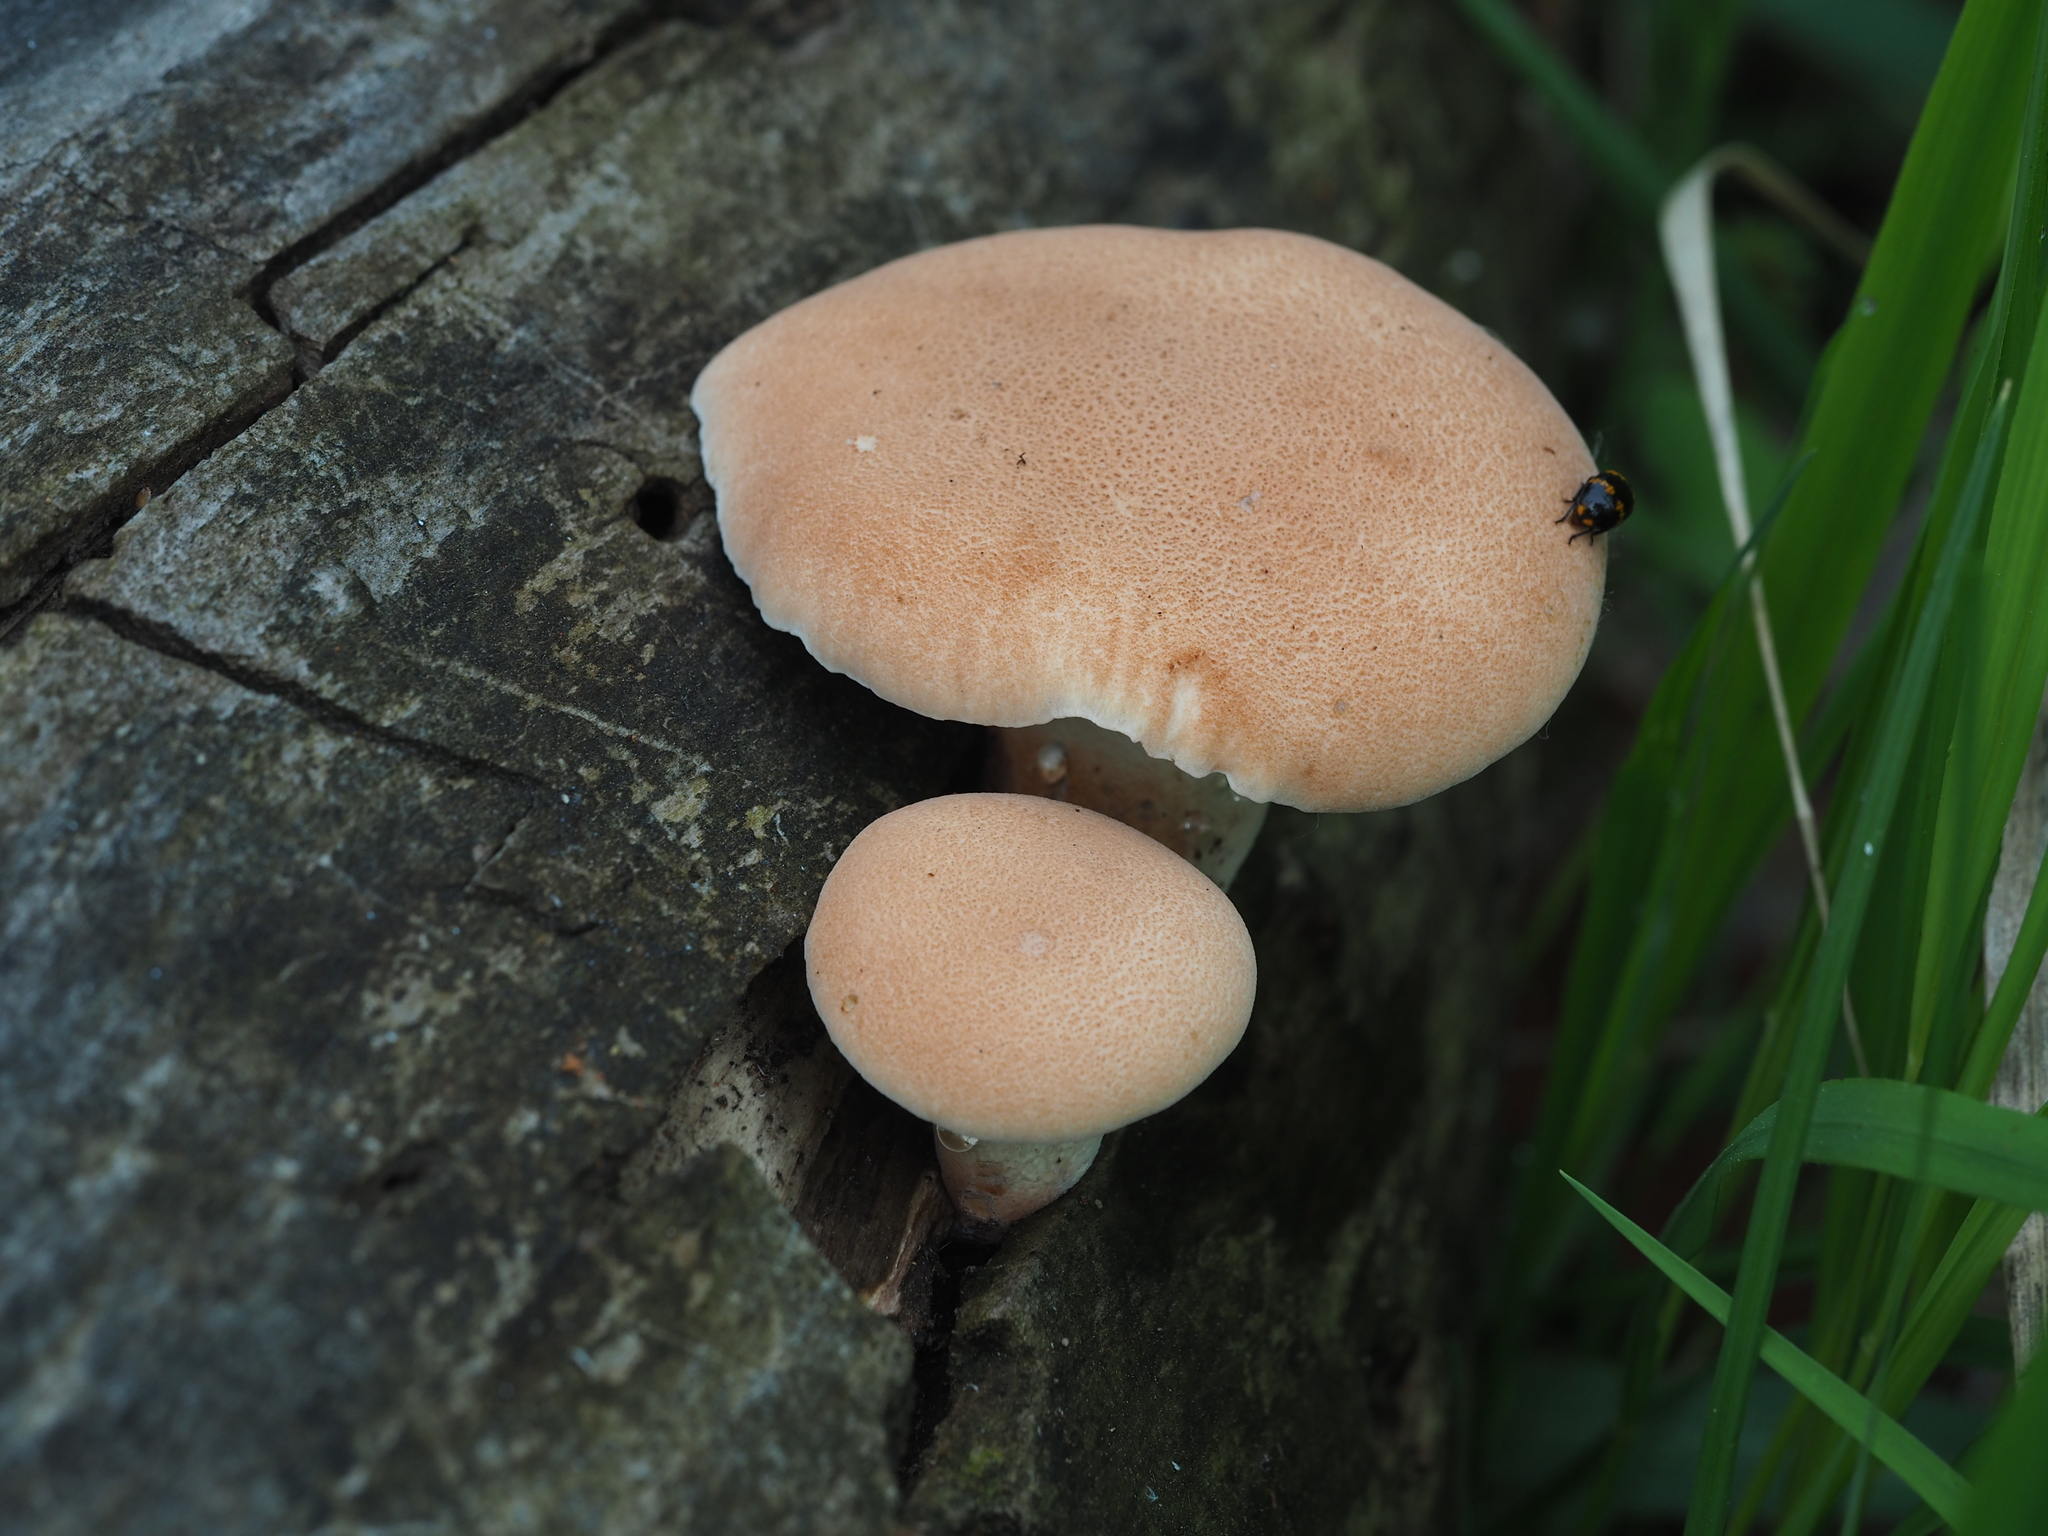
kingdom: Fungi
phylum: Basidiomycota
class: Agaricomycetes
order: Gloeophyllales
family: Gloeophyllaceae
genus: Neolentinus
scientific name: Neolentinus cyathiformis
